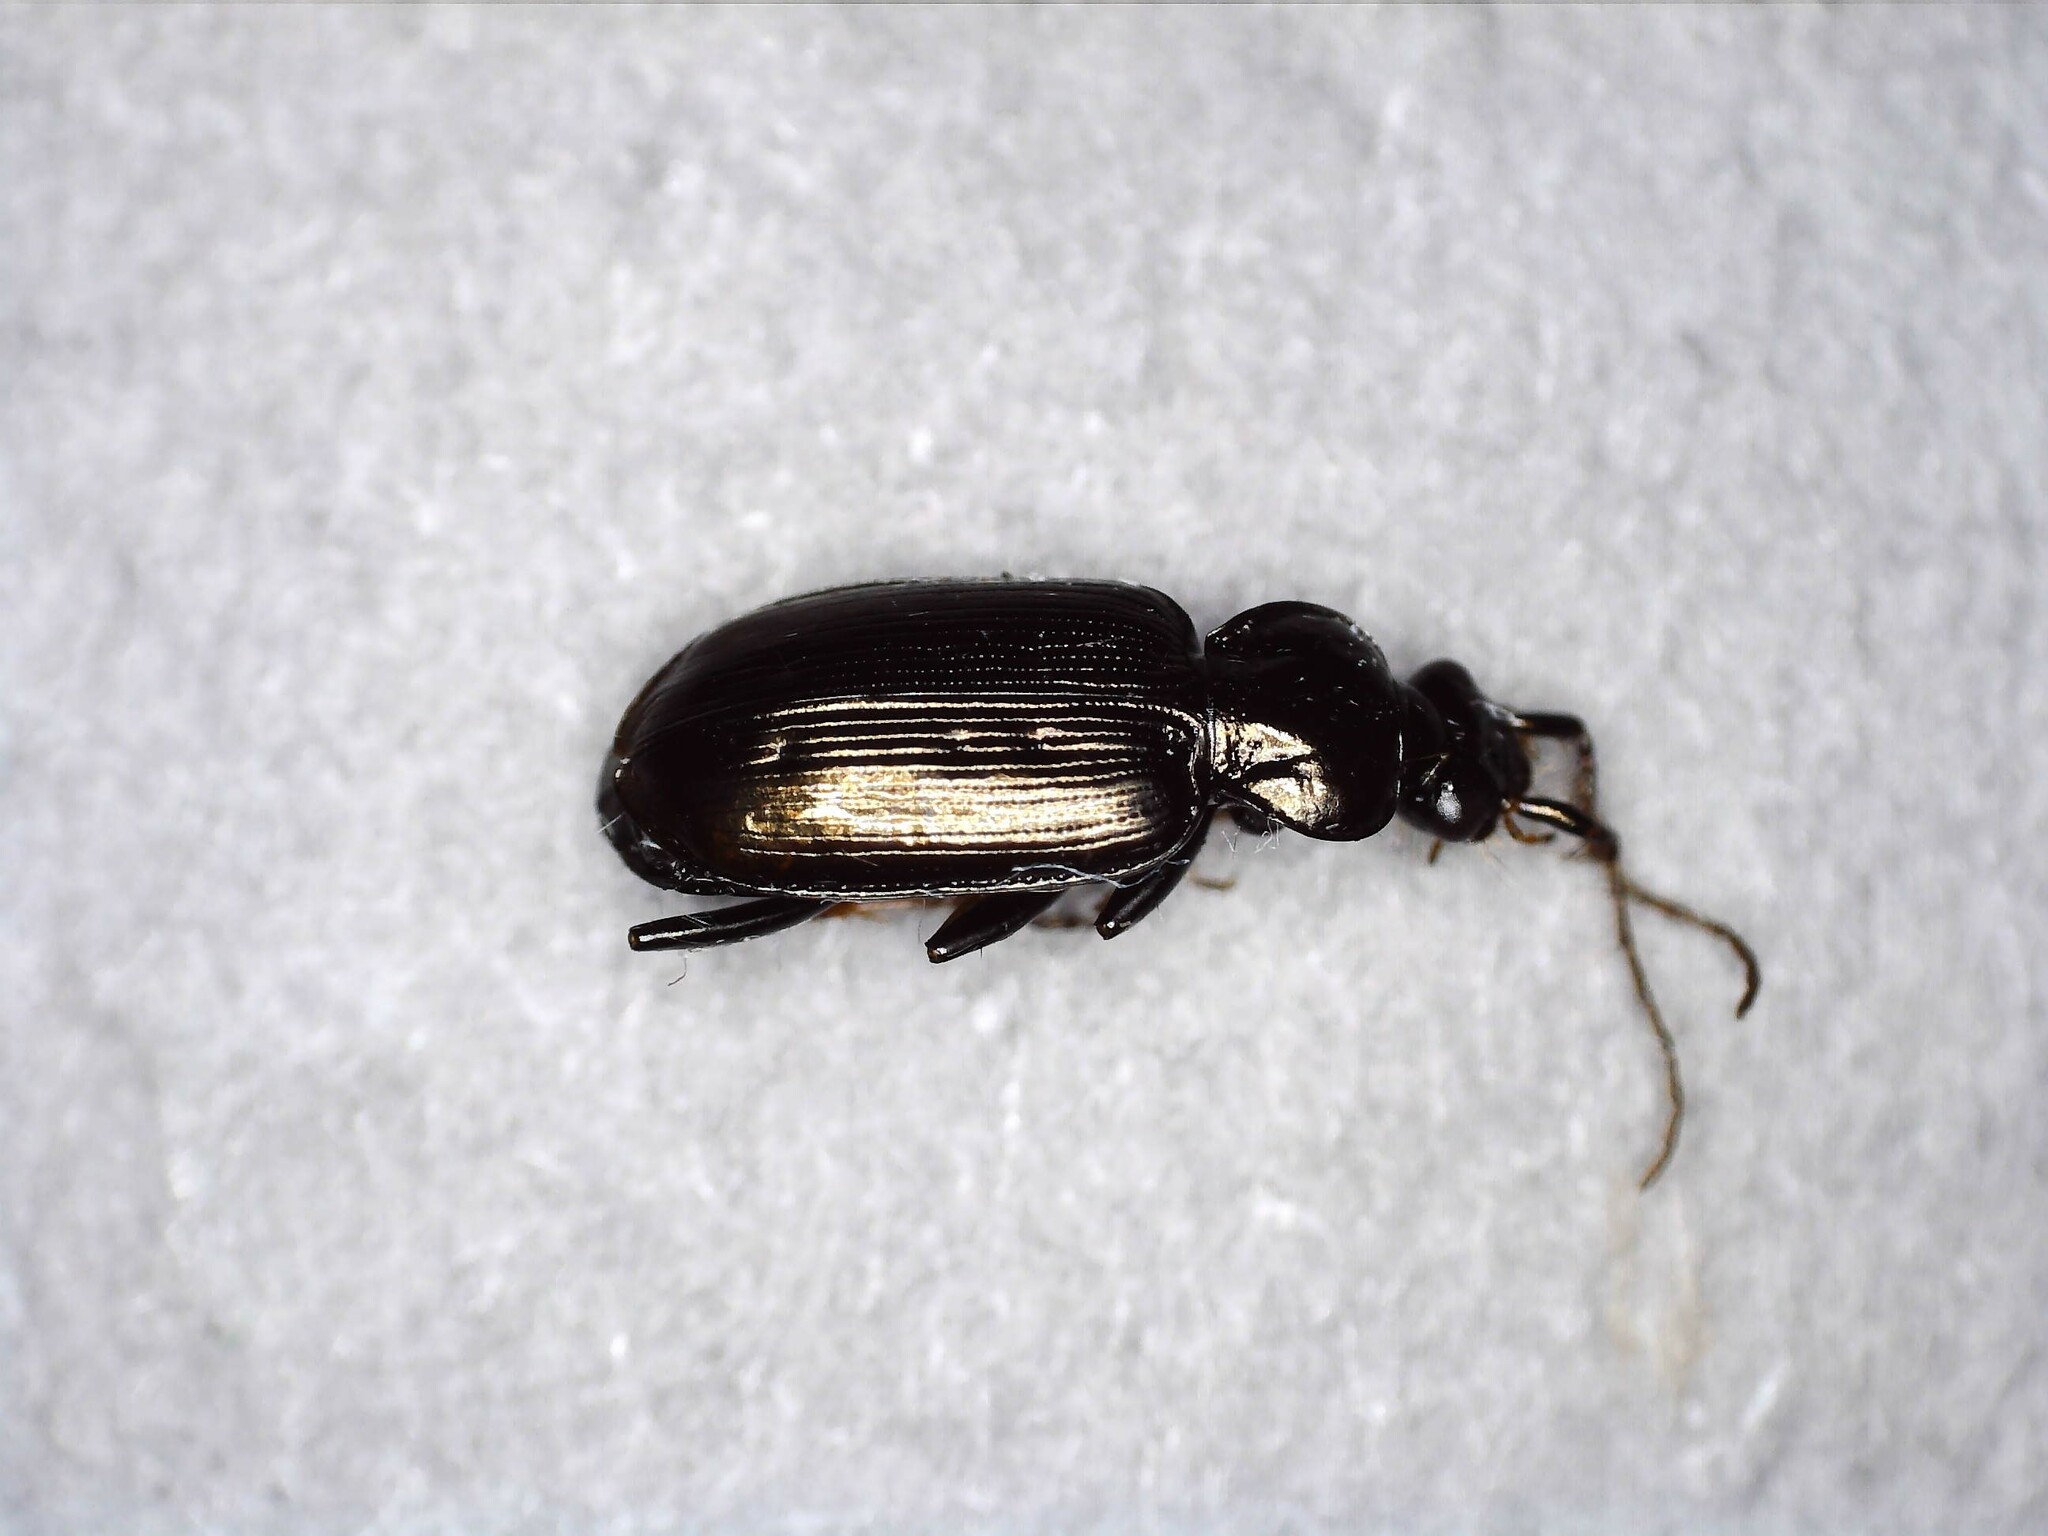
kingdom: Animalia
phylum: Arthropoda
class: Insecta
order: Coleoptera
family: Carabidae
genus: Loricera
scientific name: Loricera pilicornis
